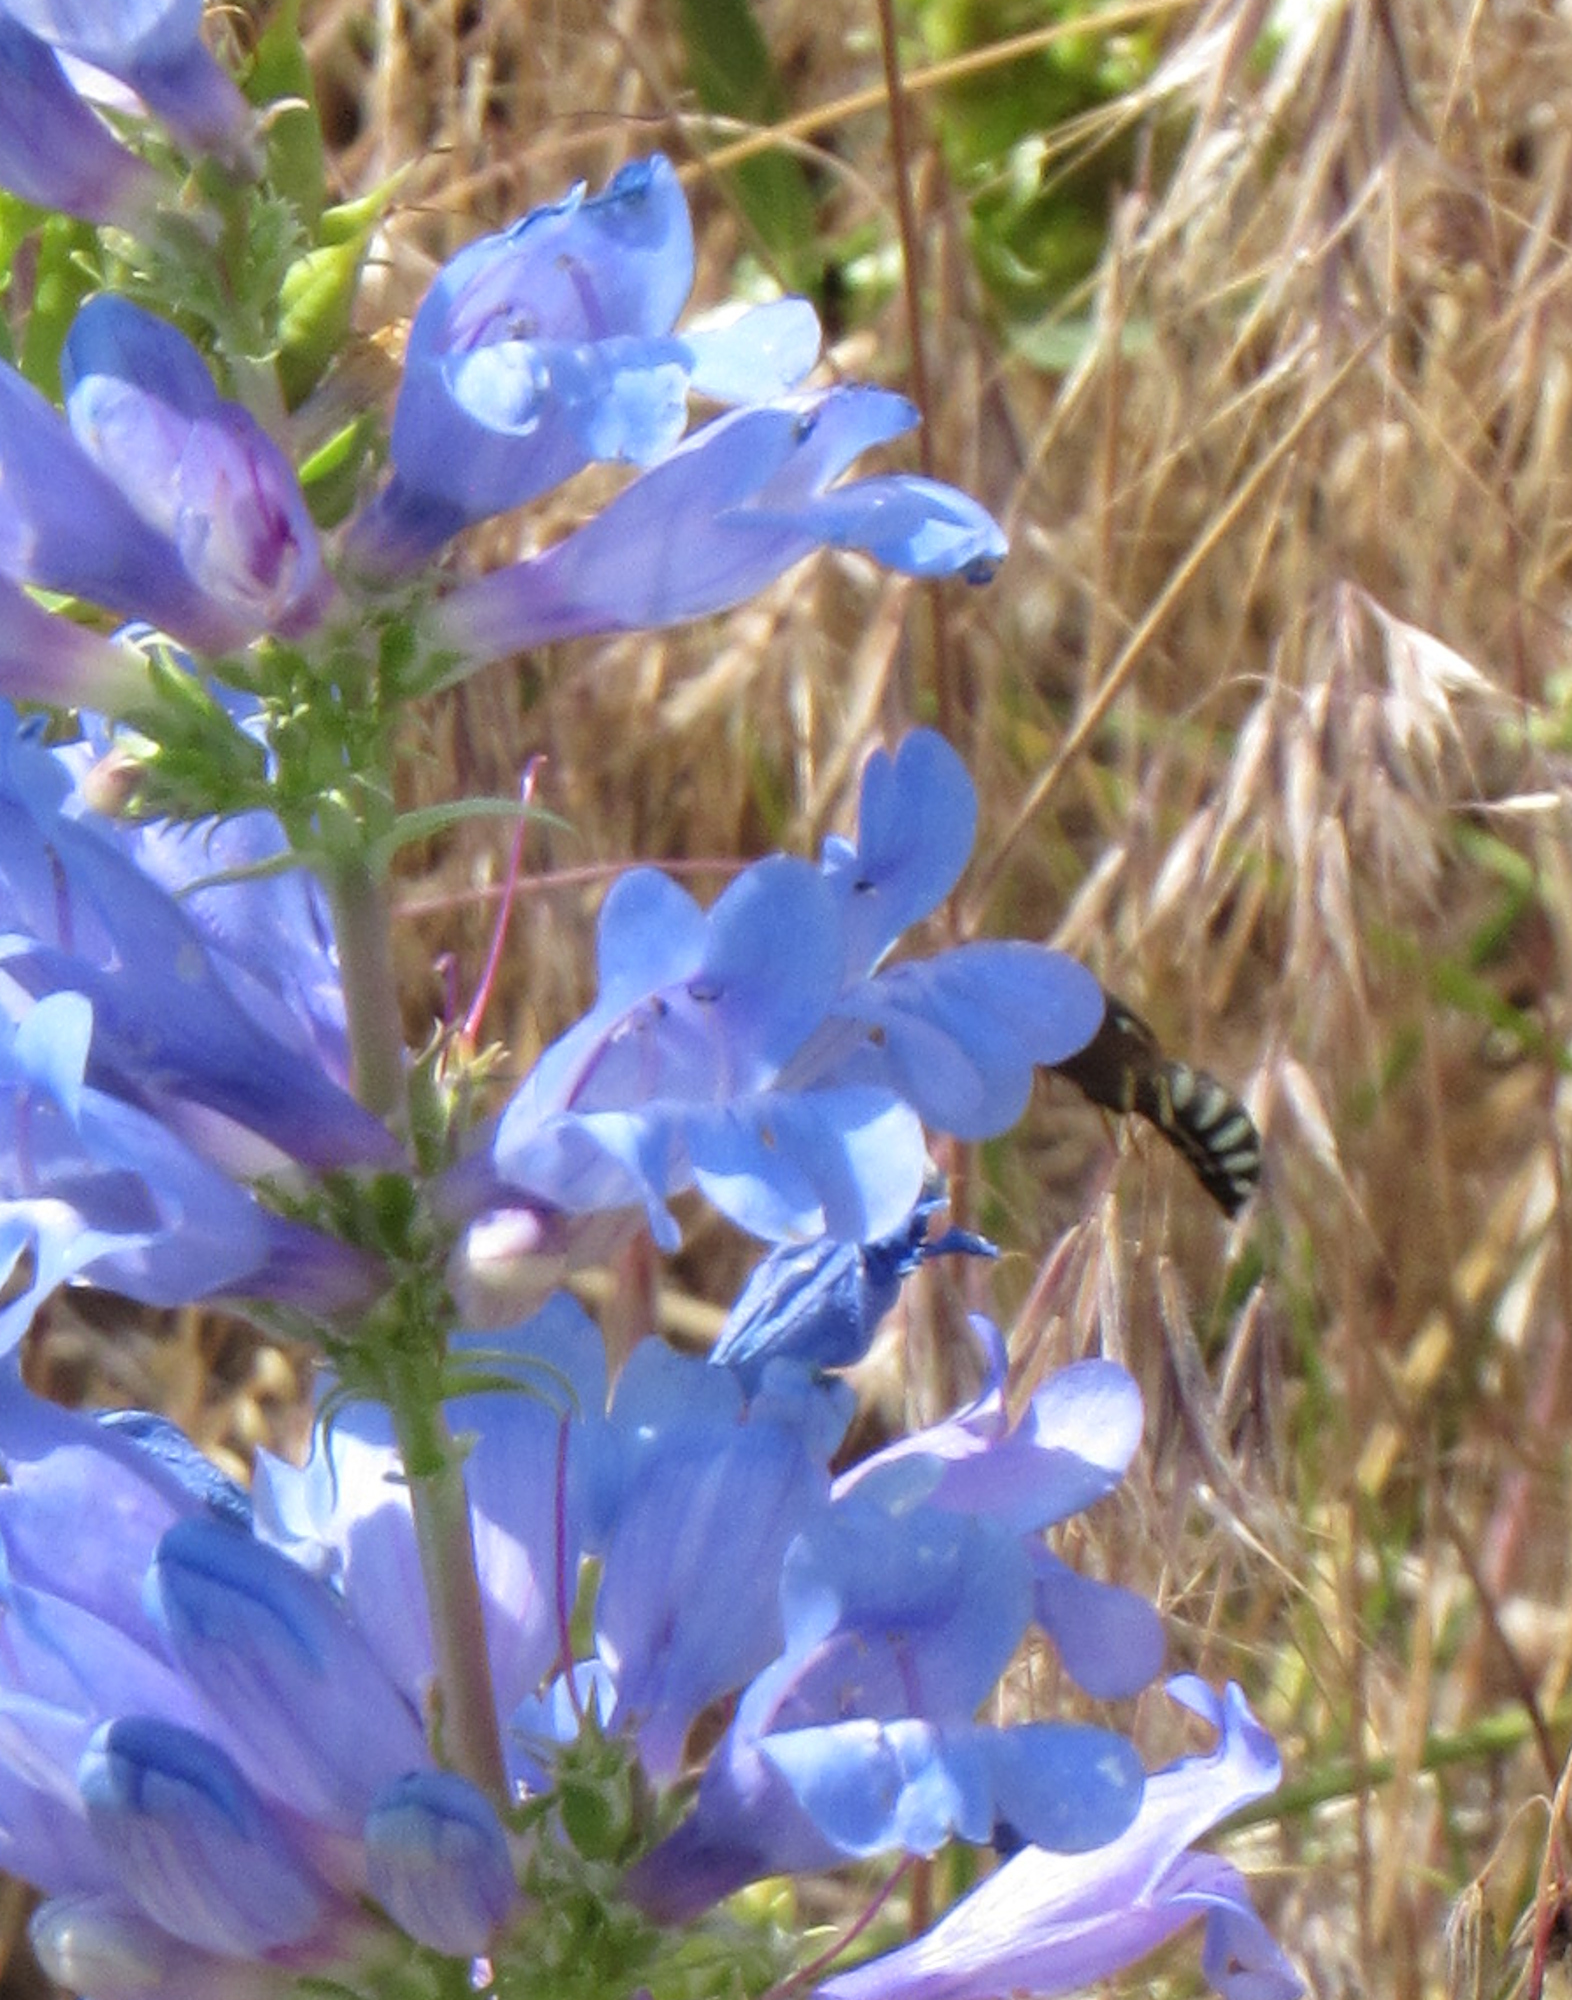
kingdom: Animalia
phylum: Arthropoda
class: Insecta
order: Hymenoptera
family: Masaridae
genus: Pseudomasaris
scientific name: Pseudomasaris vespoides
